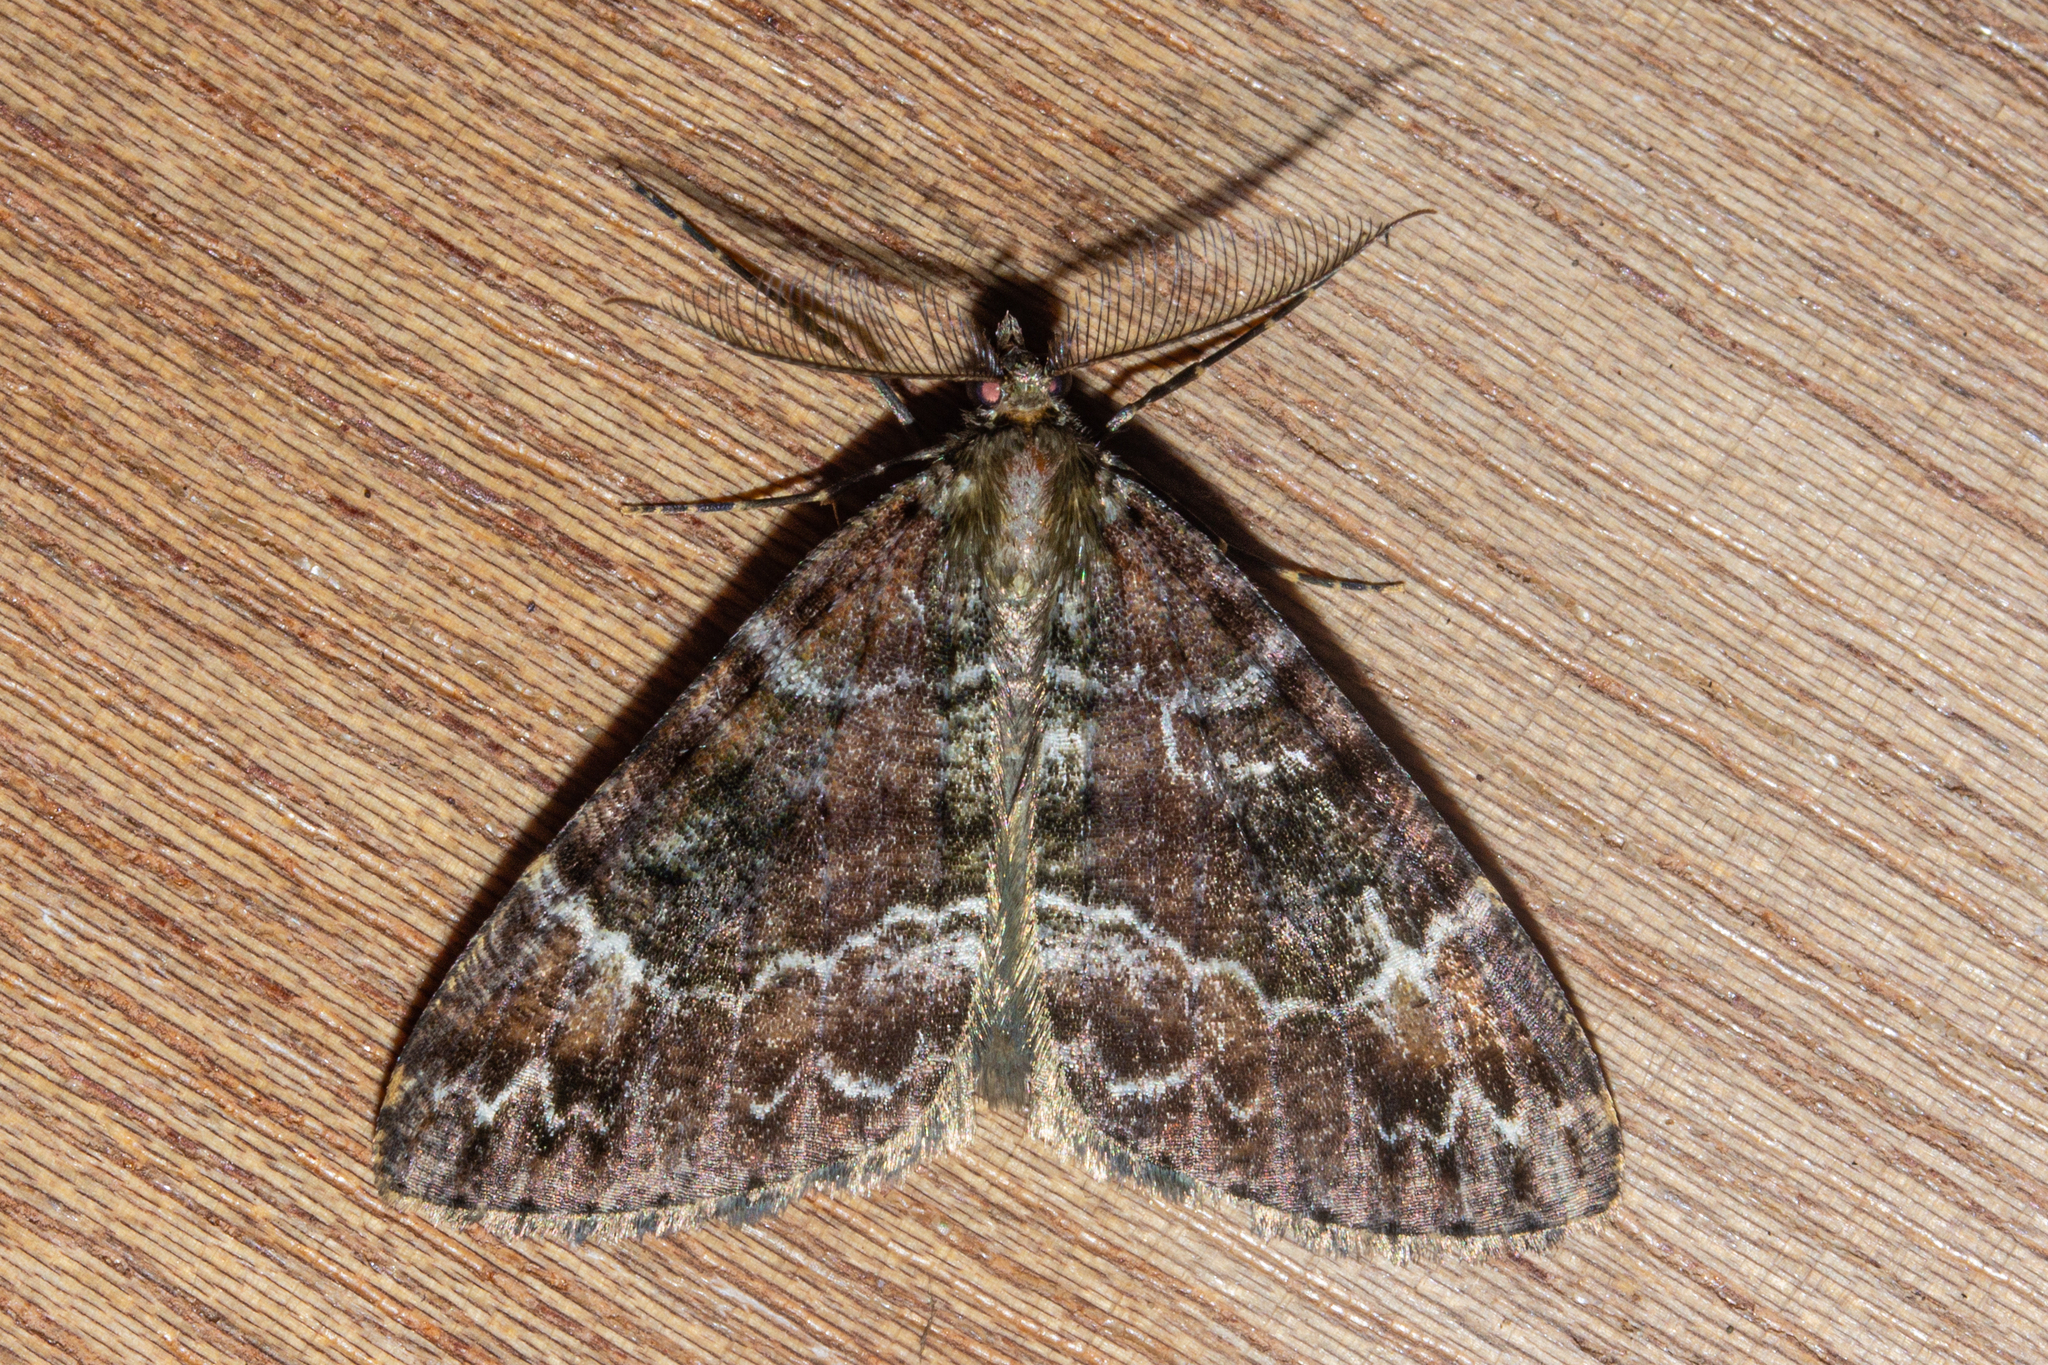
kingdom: Animalia
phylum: Arthropoda
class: Insecta
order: Lepidoptera
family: Geometridae
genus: Pseudocoremia
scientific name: Pseudocoremia productata
